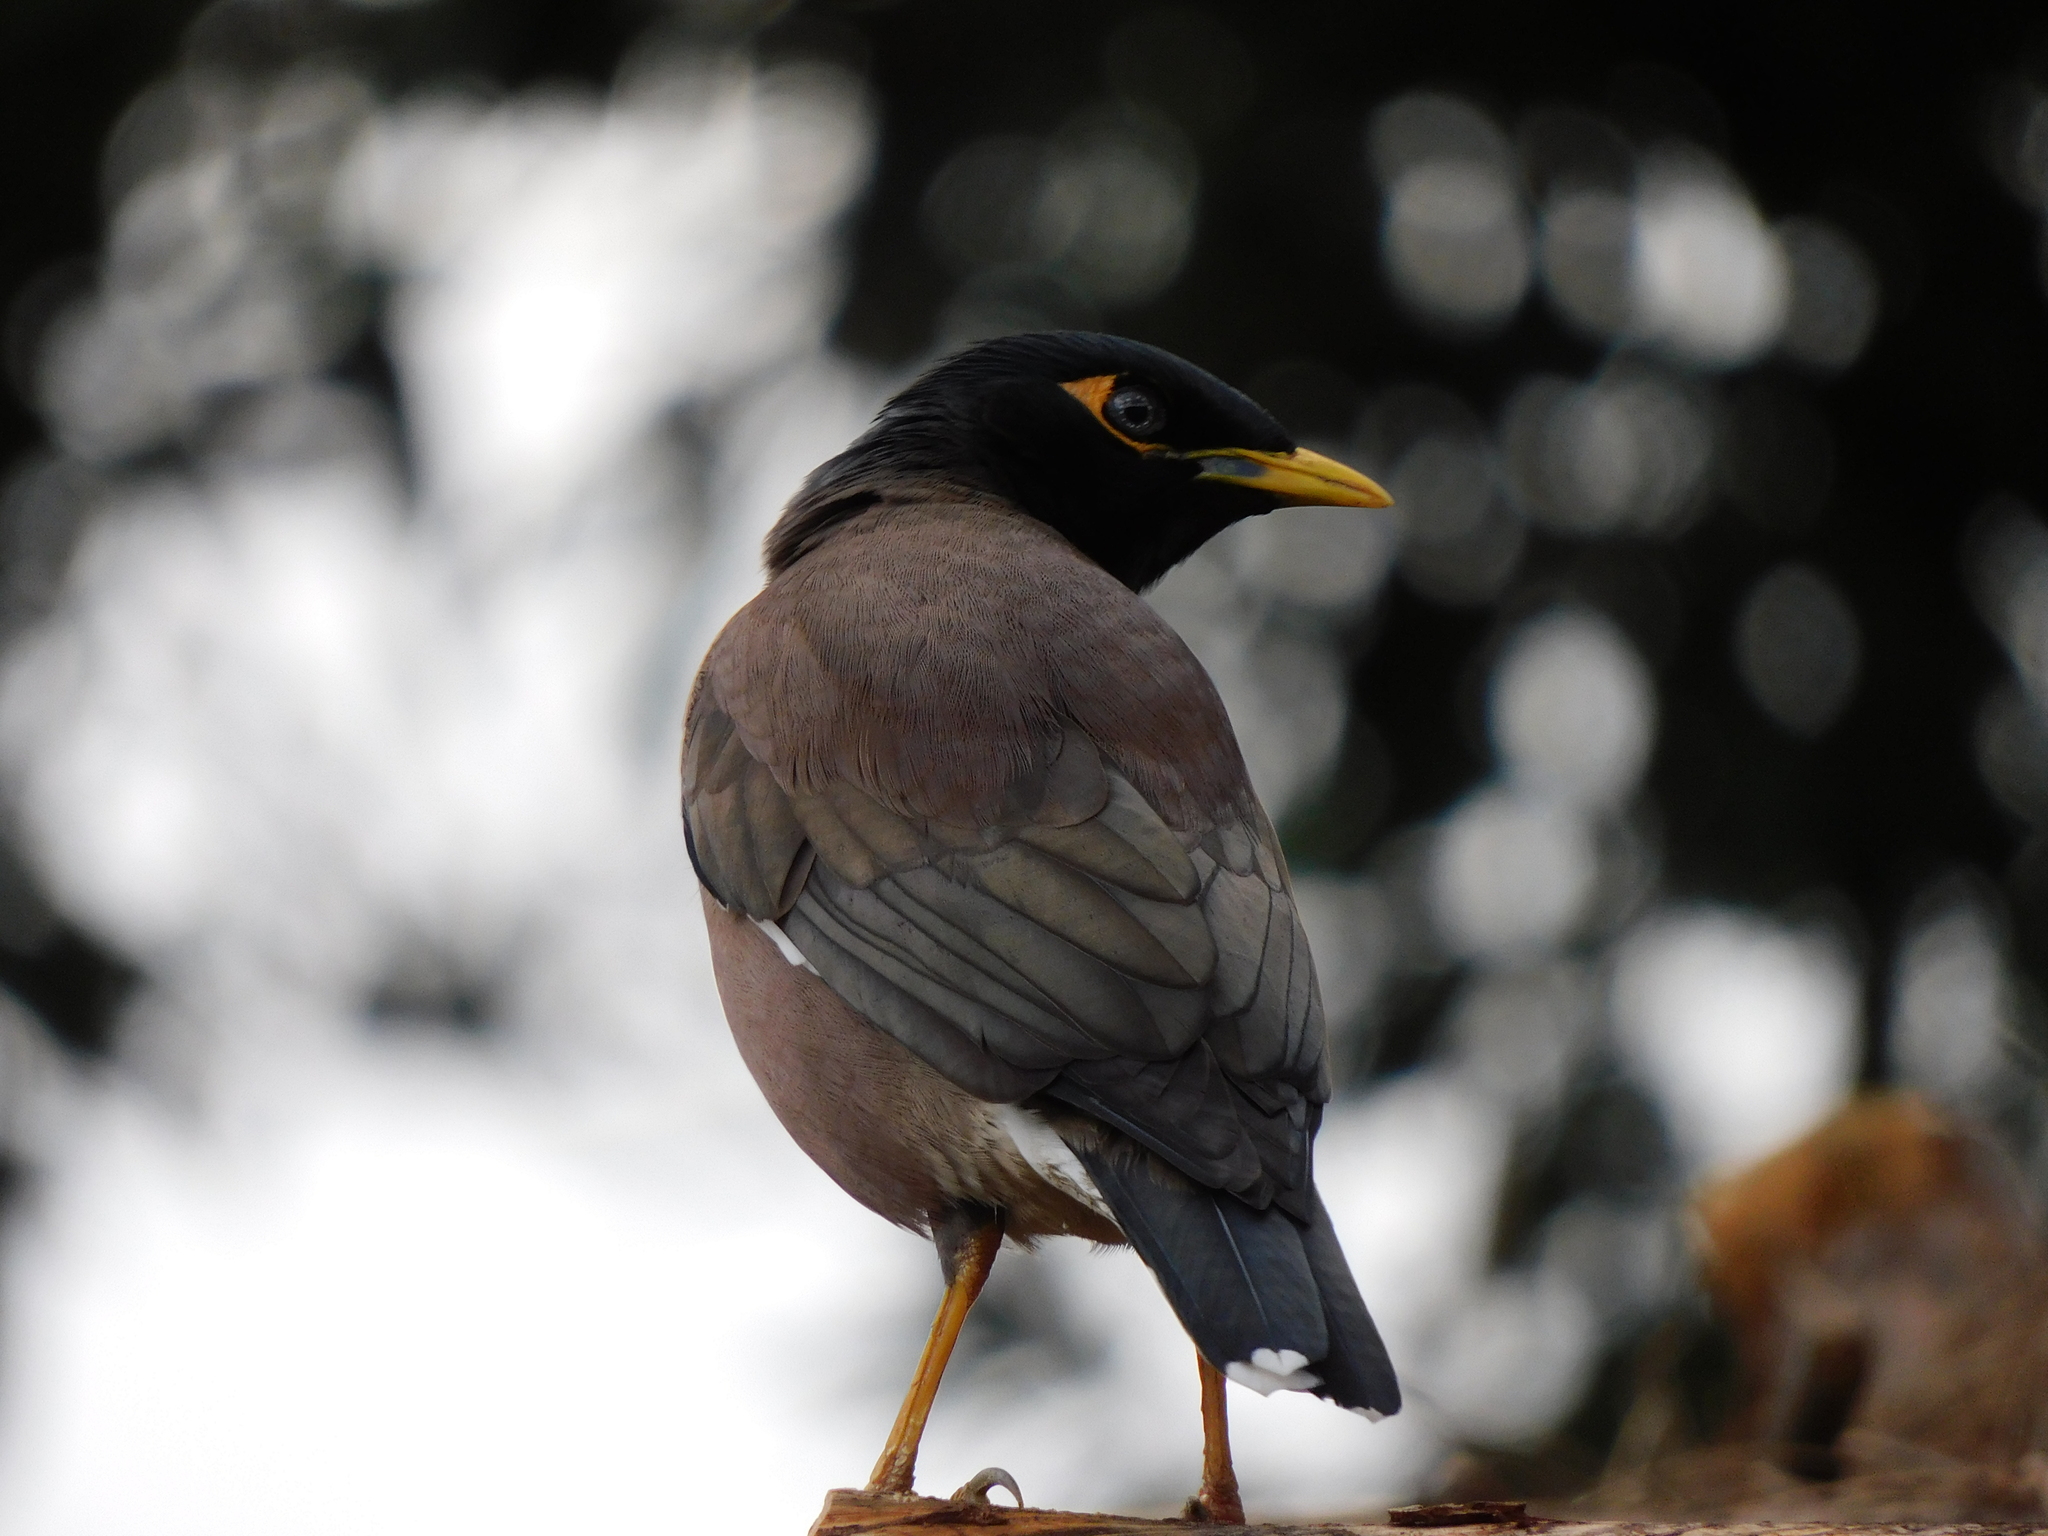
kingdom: Animalia
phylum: Chordata
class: Aves
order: Passeriformes
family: Sturnidae
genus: Acridotheres
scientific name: Acridotheres tristis
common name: Common myna
